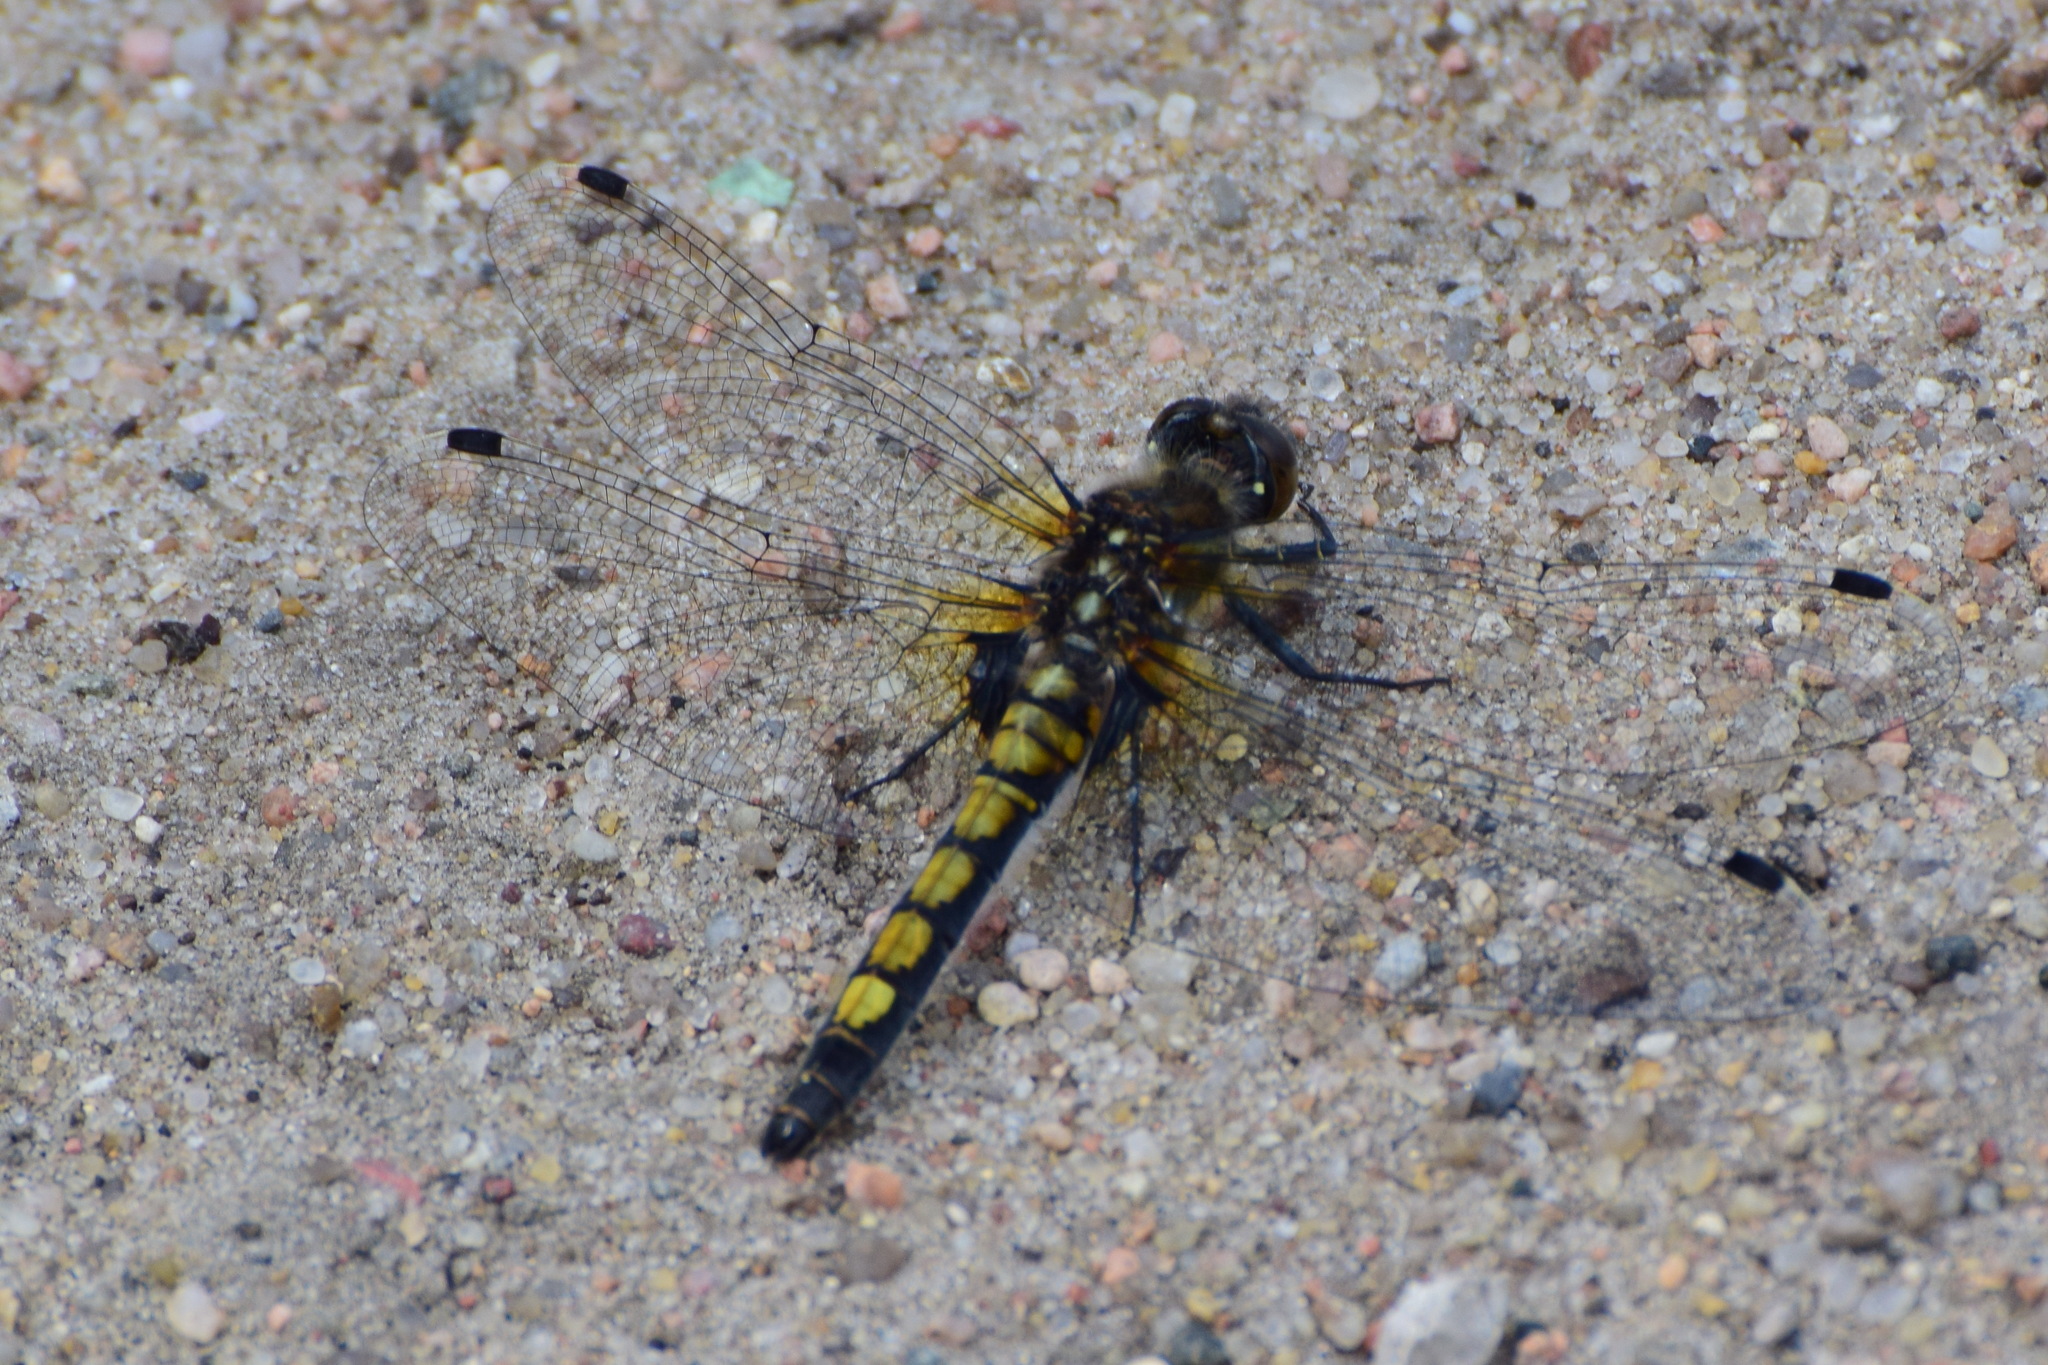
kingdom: Animalia
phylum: Arthropoda
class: Insecta
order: Odonata
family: Libellulidae
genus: Leucorrhinia
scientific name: Leucorrhinia pectoralis
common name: Yellow-spotted whiteface
